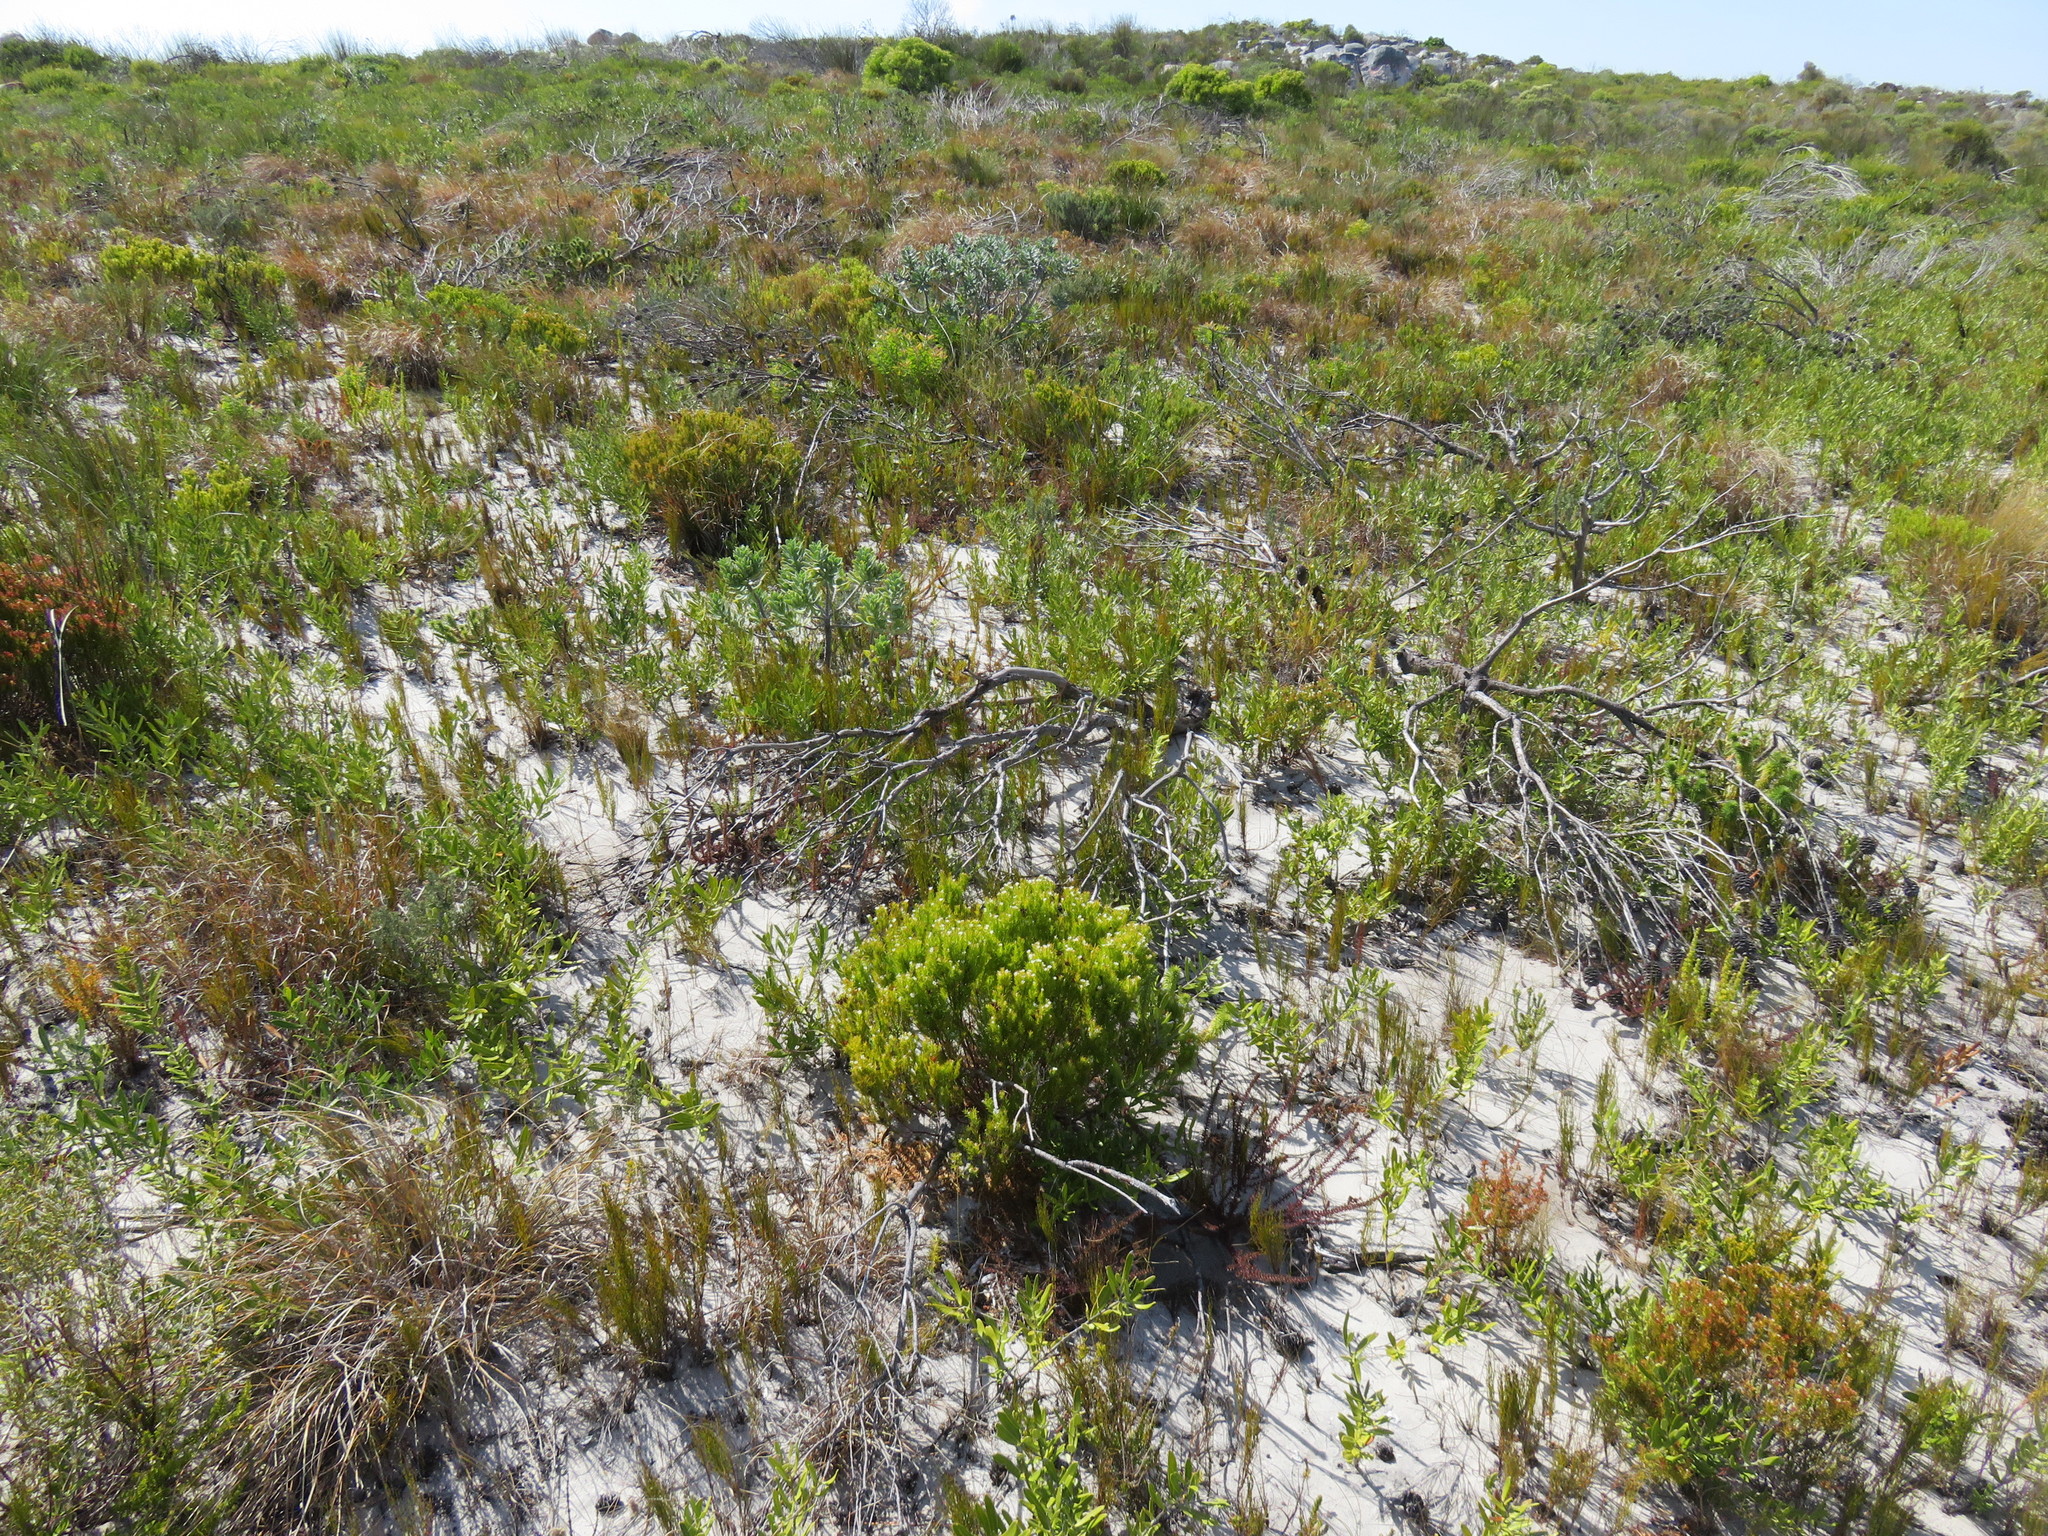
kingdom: Plantae
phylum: Tracheophyta
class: Magnoliopsida
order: Sapindales
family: Rutaceae
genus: Coleonema
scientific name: Coleonema album
